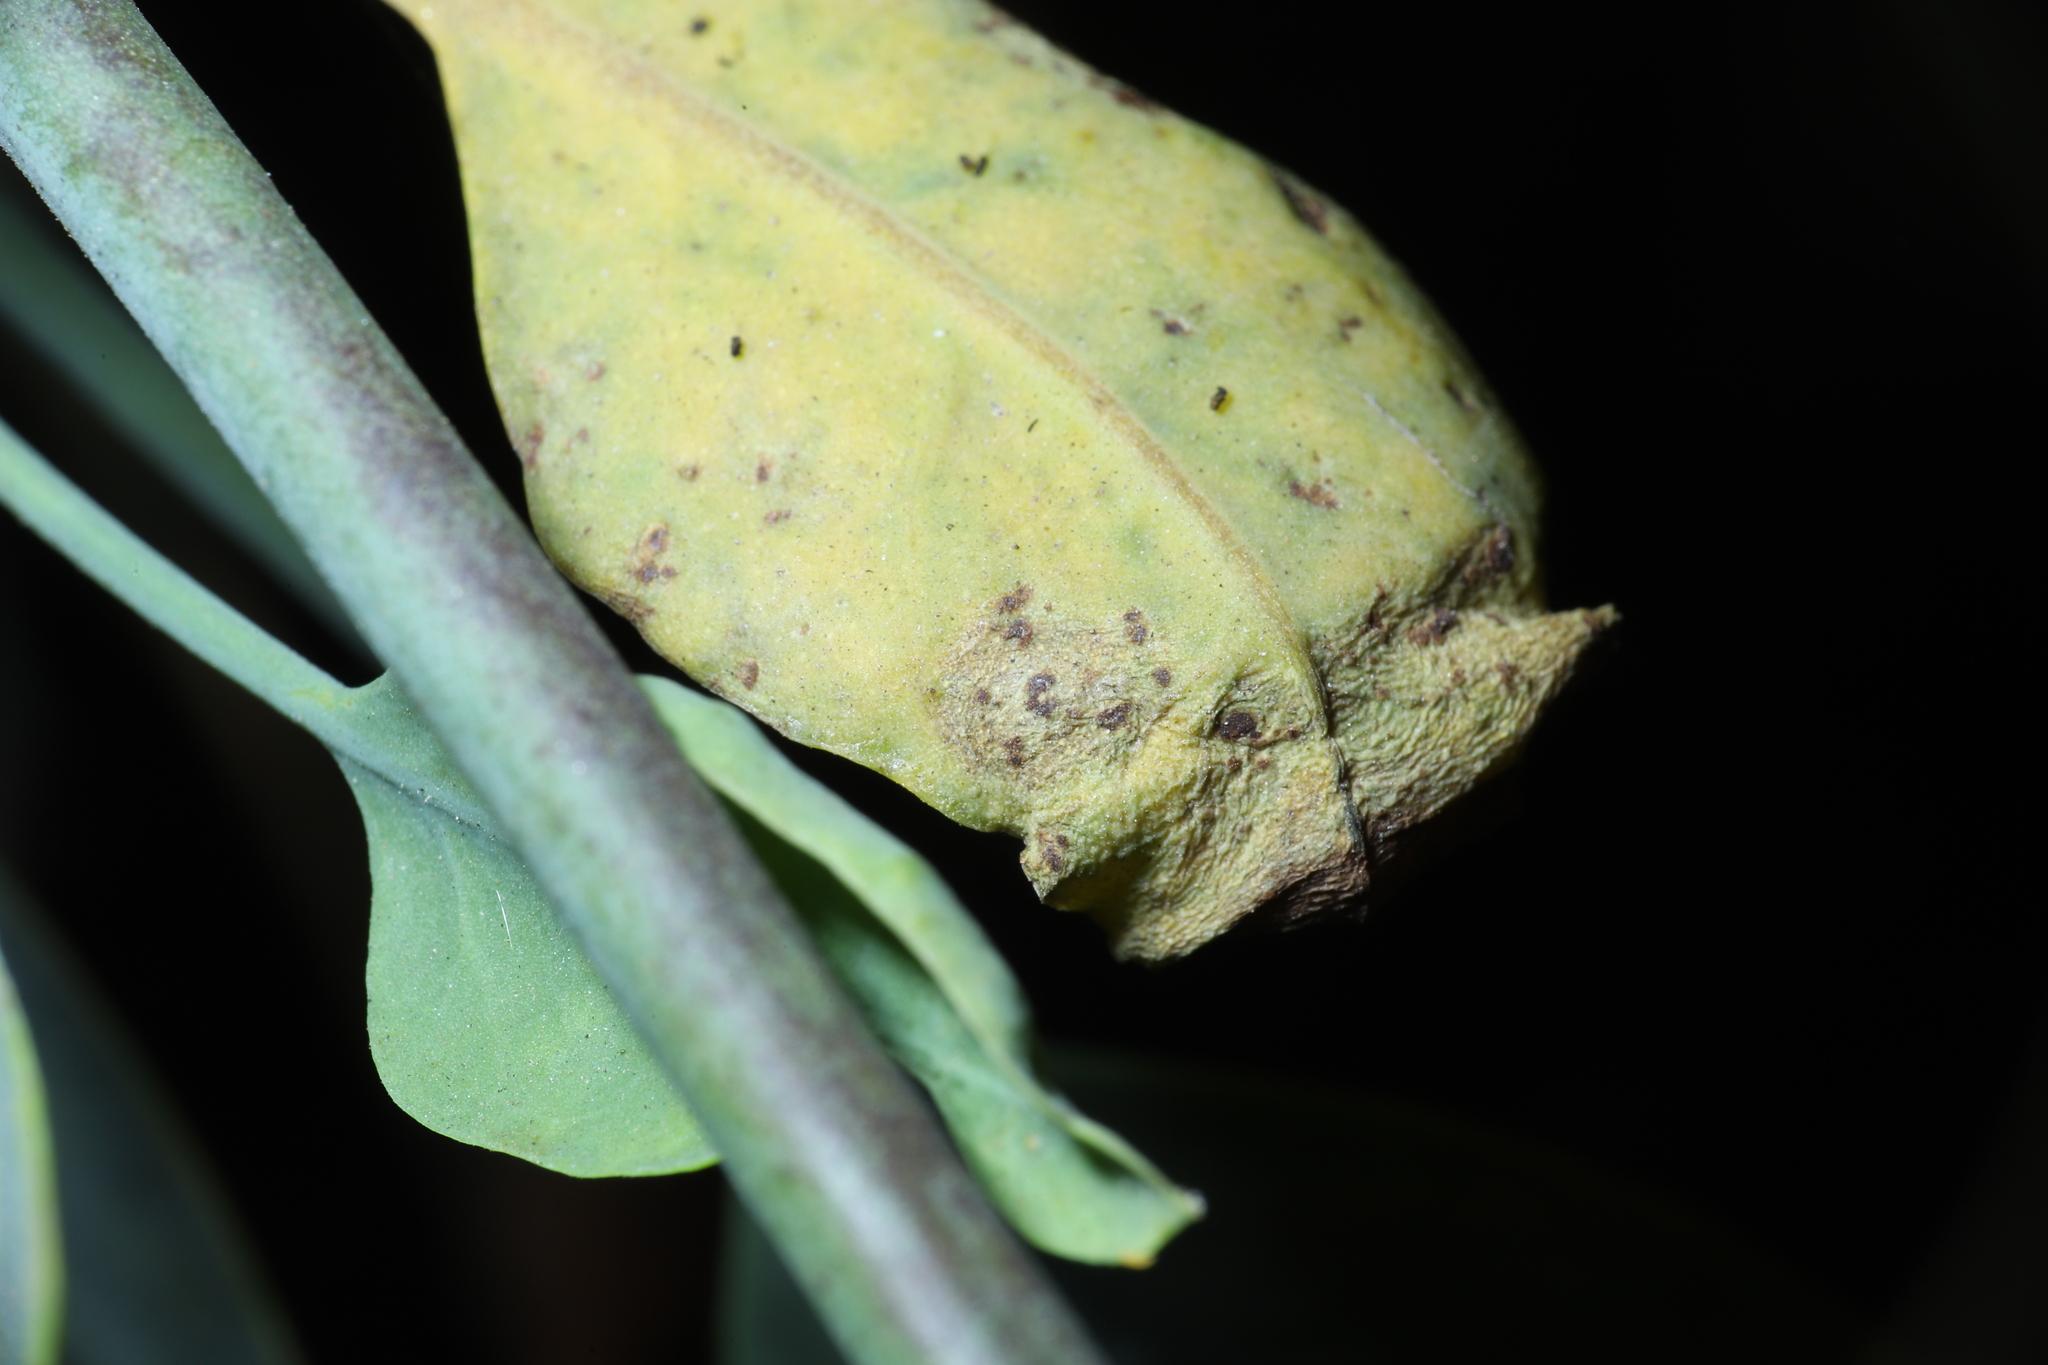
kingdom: Plantae
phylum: Tracheophyta
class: Magnoliopsida
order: Solanales
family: Solanaceae
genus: Nicotiana
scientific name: Nicotiana glauca
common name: Tree tobacco
